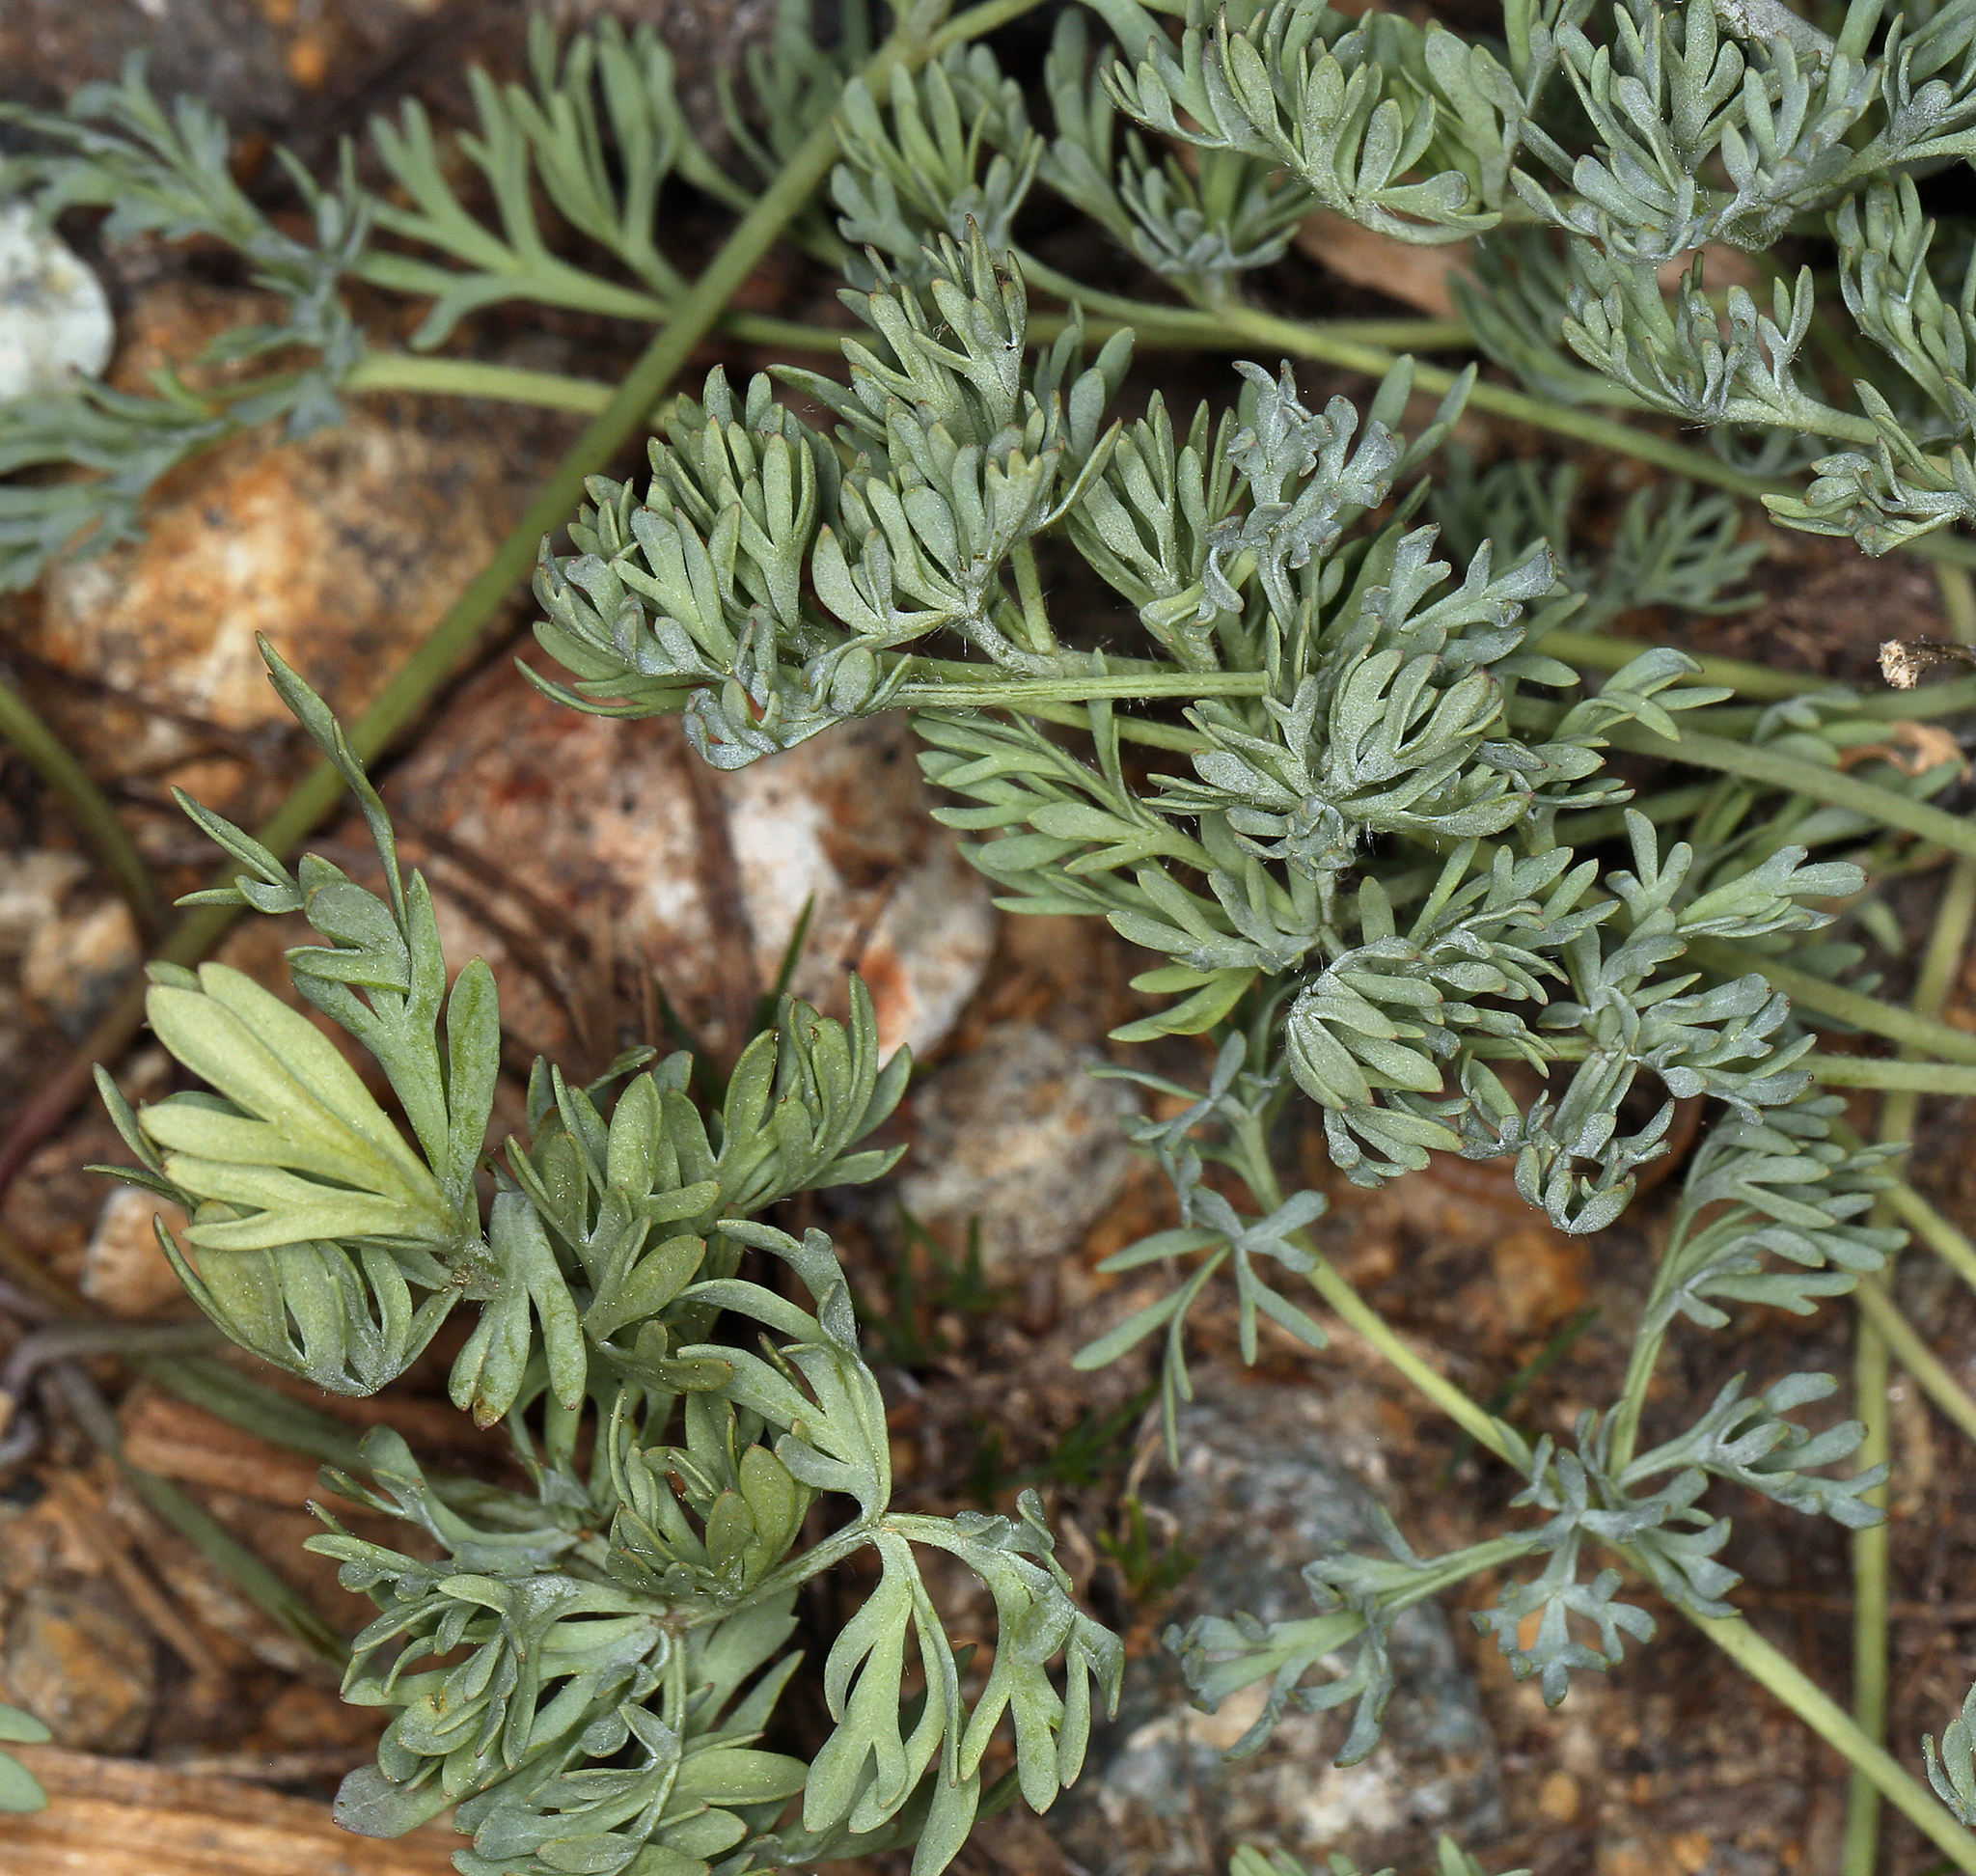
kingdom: Plantae
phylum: Tracheophyta
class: Magnoliopsida
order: Ranunculales
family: Ranunculaceae
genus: Anemone
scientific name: Anemone drummondii
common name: Drummond's anemone
